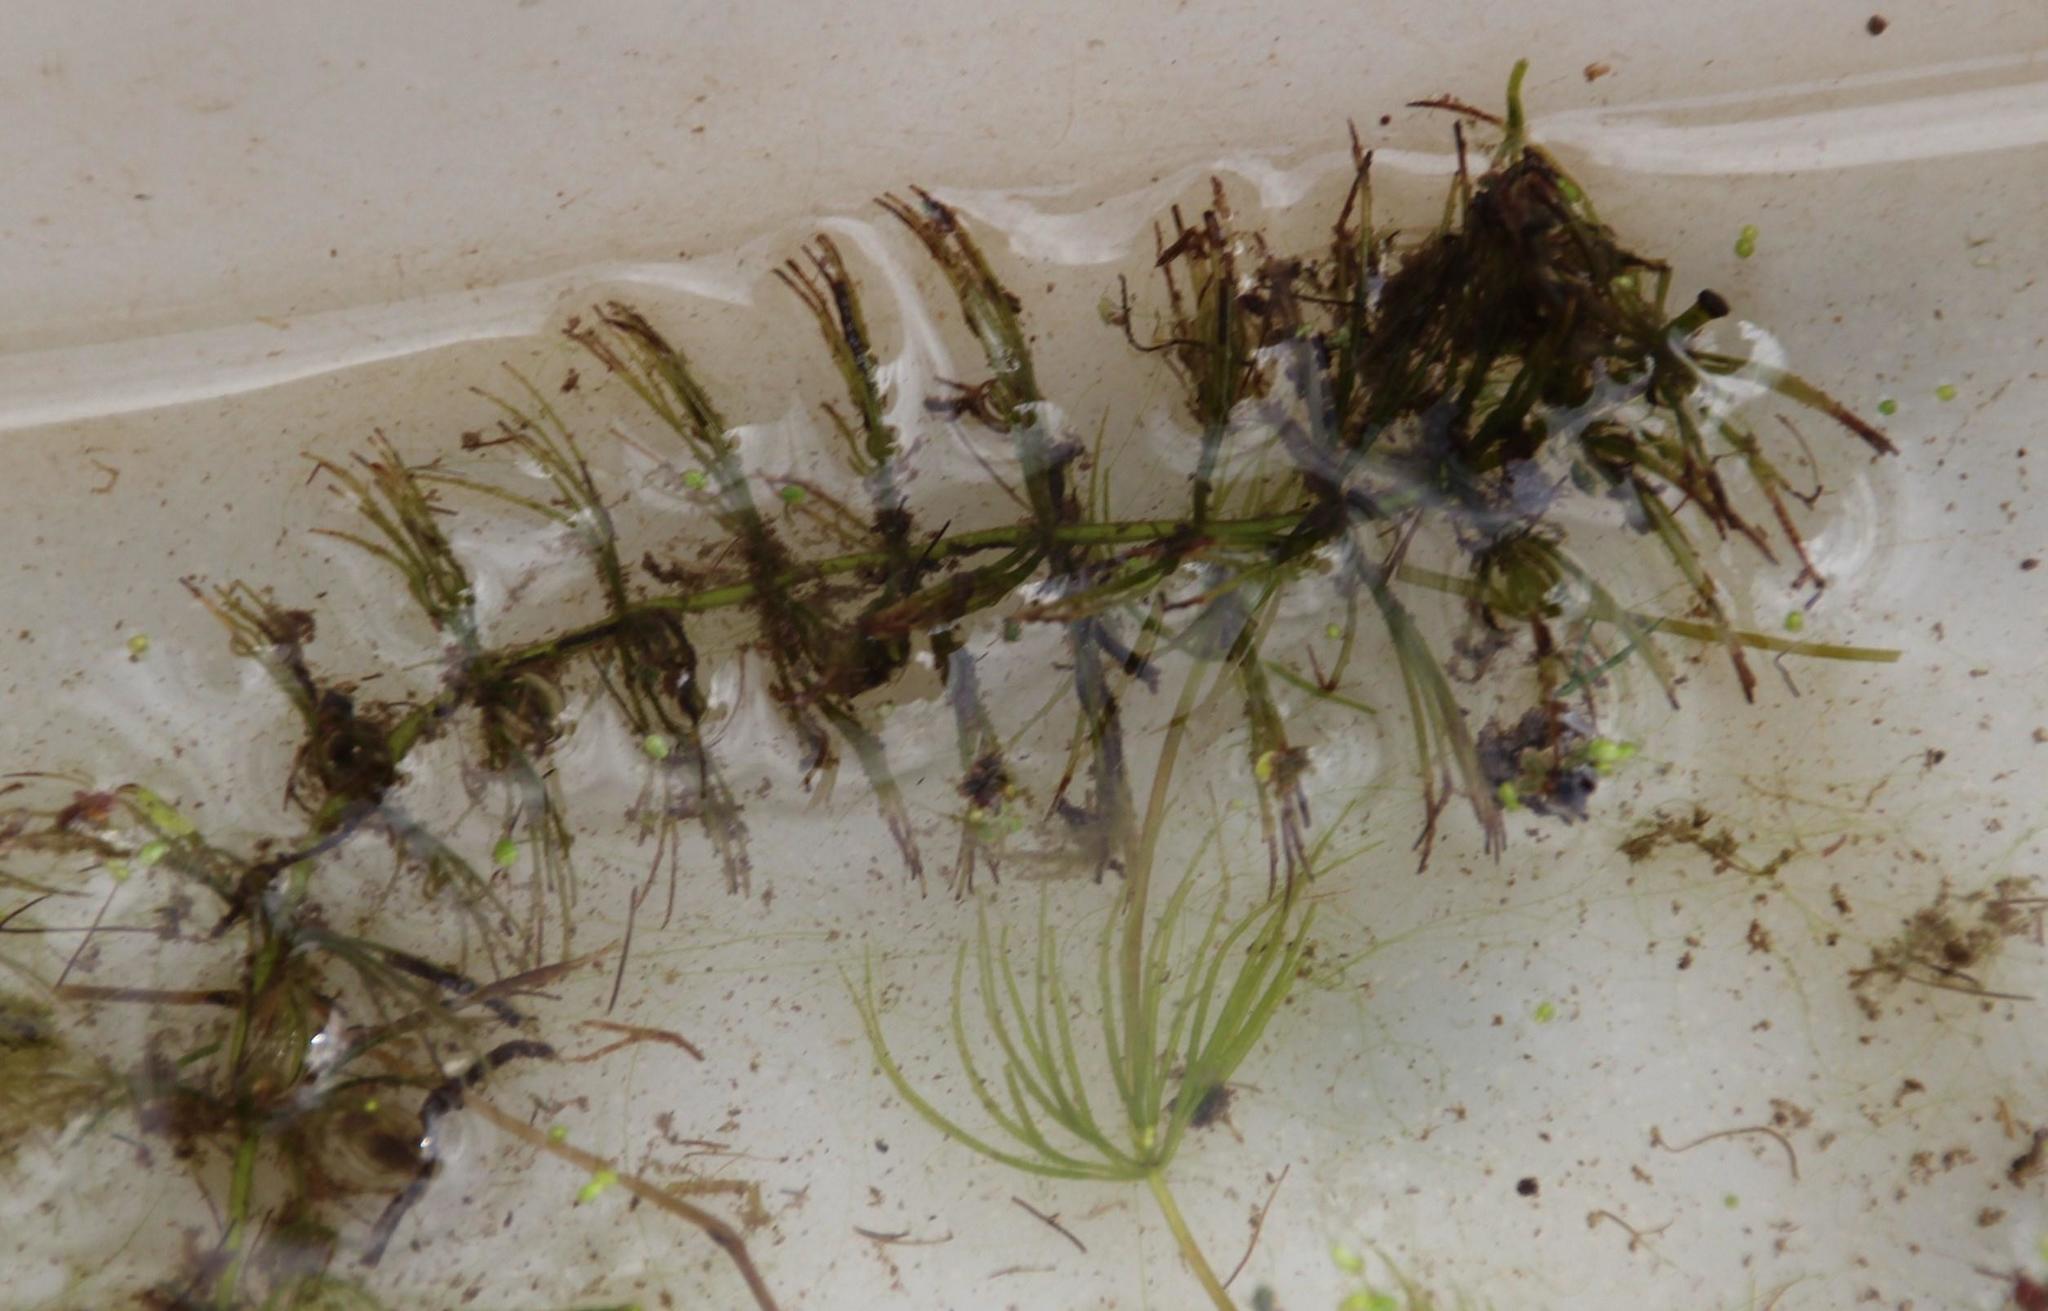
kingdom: Plantae
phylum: Tracheophyta
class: Magnoliopsida
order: Ceratophyllales
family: Ceratophyllaceae
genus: Ceratophyllum
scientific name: Ceratophyllum demersum
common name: Rigid hornwort
